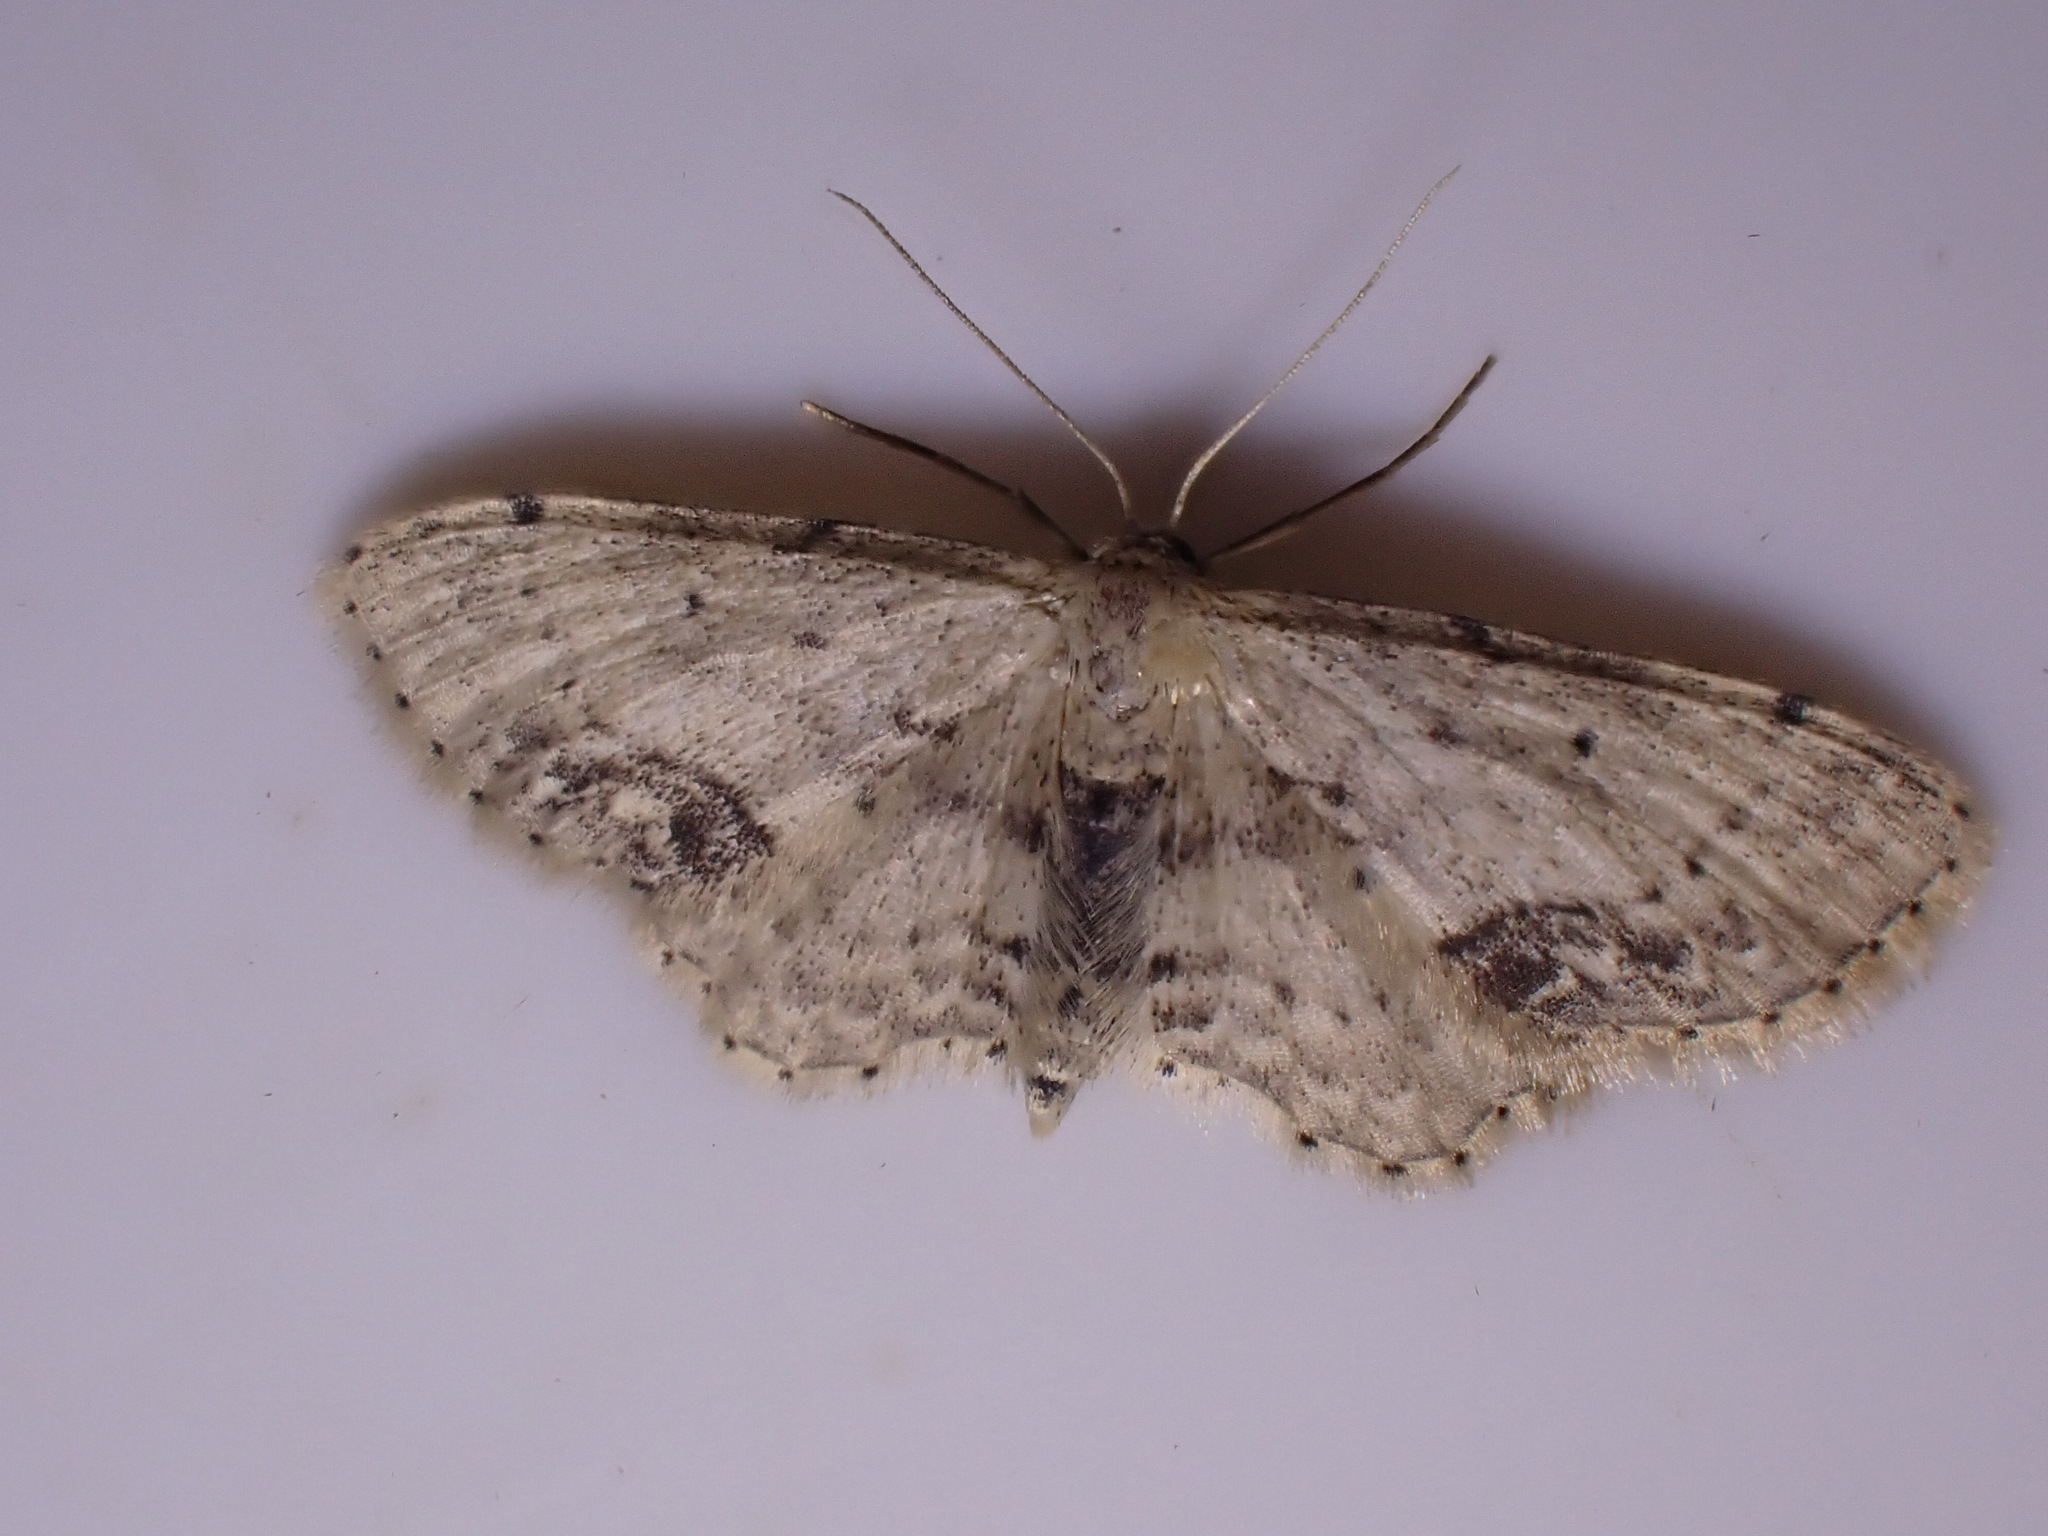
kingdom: Animalia
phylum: Arthropoda
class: Insecta
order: Lepidoptera
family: Geometridae
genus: Idaea
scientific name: Idaea dimidiata
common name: Single-dotted wave
